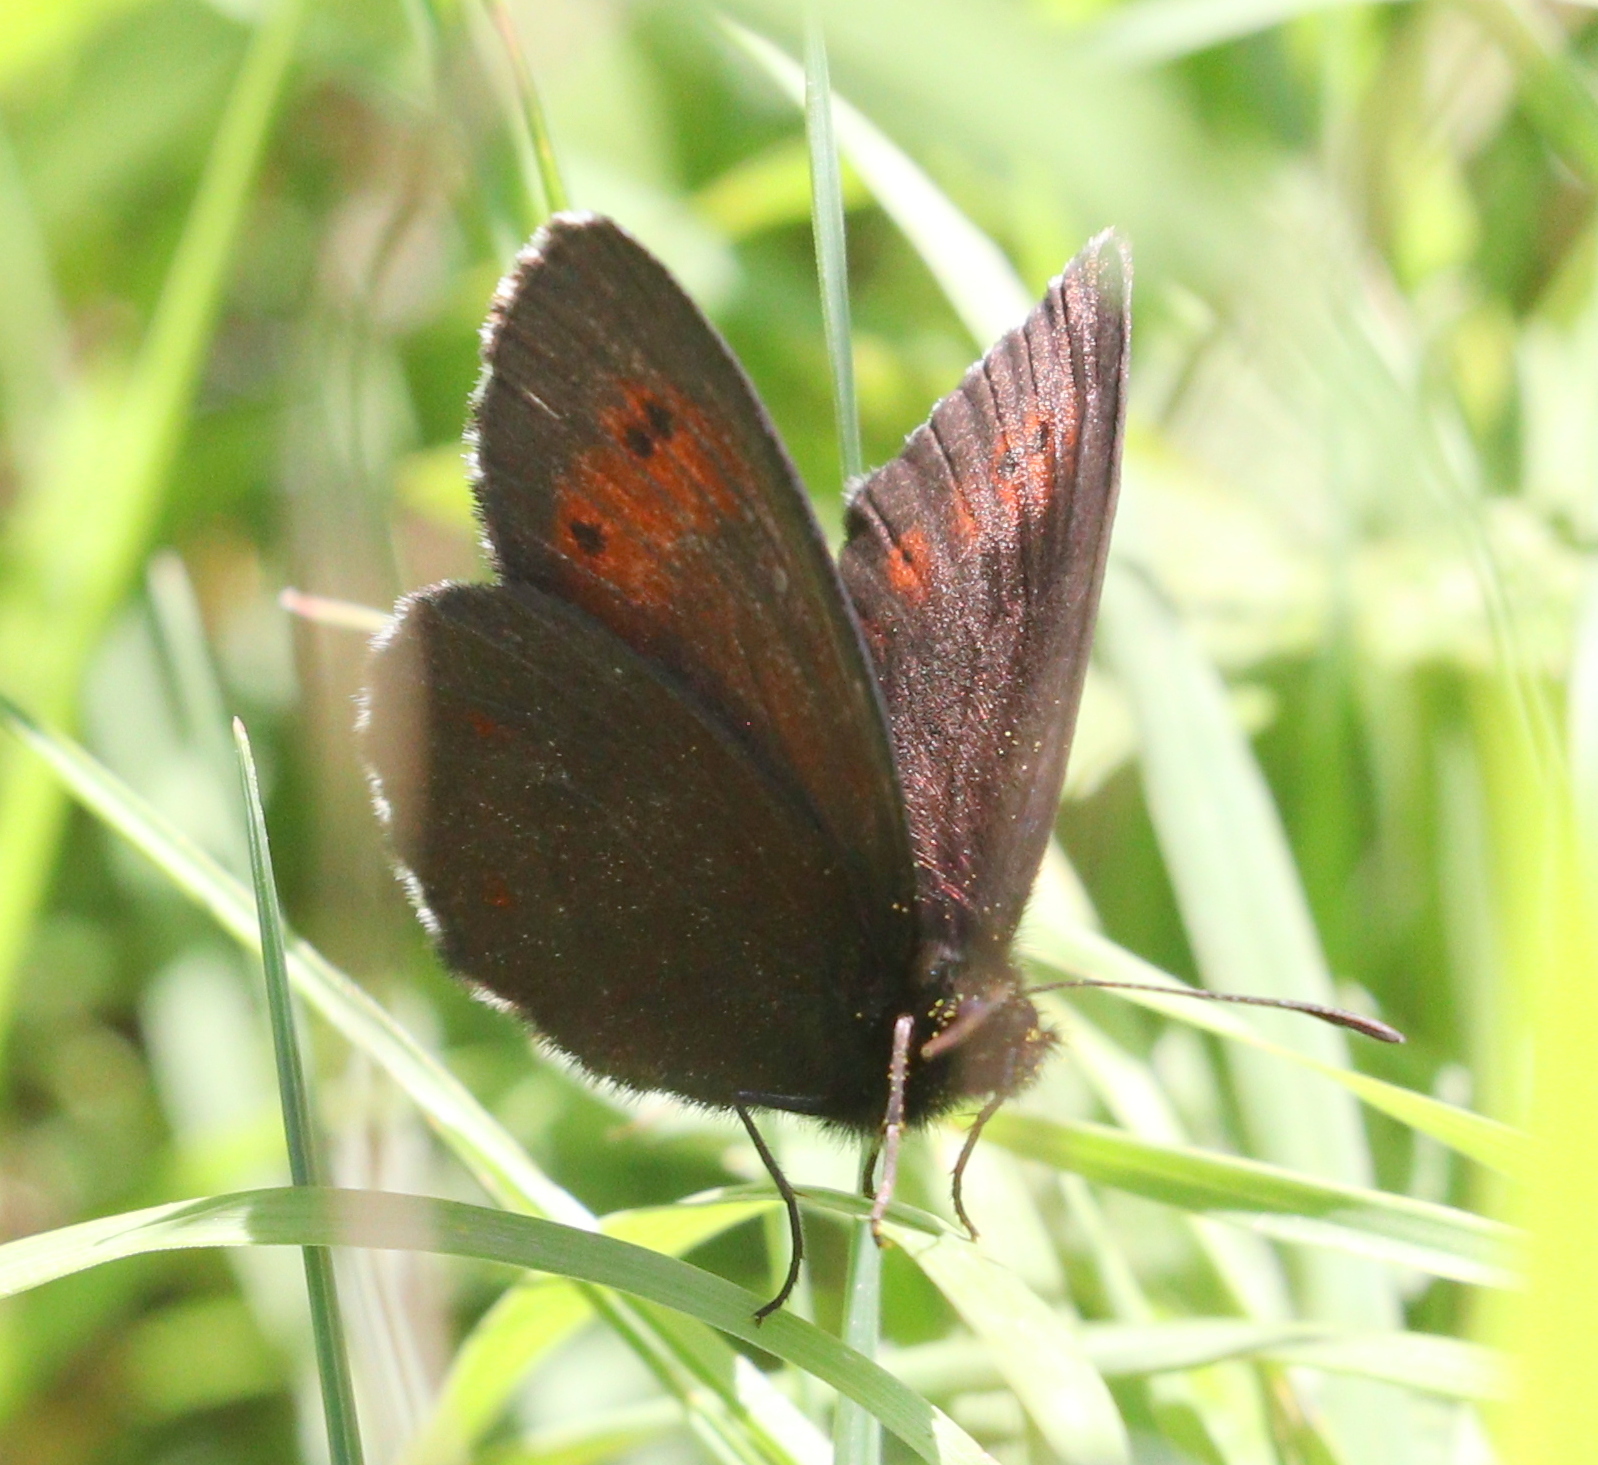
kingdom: Animalia
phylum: Arthropoda
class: Insecta
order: Lepidoptera
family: Nymphalidae
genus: Erebia
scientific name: Erebia euryale
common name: Large ringlet
